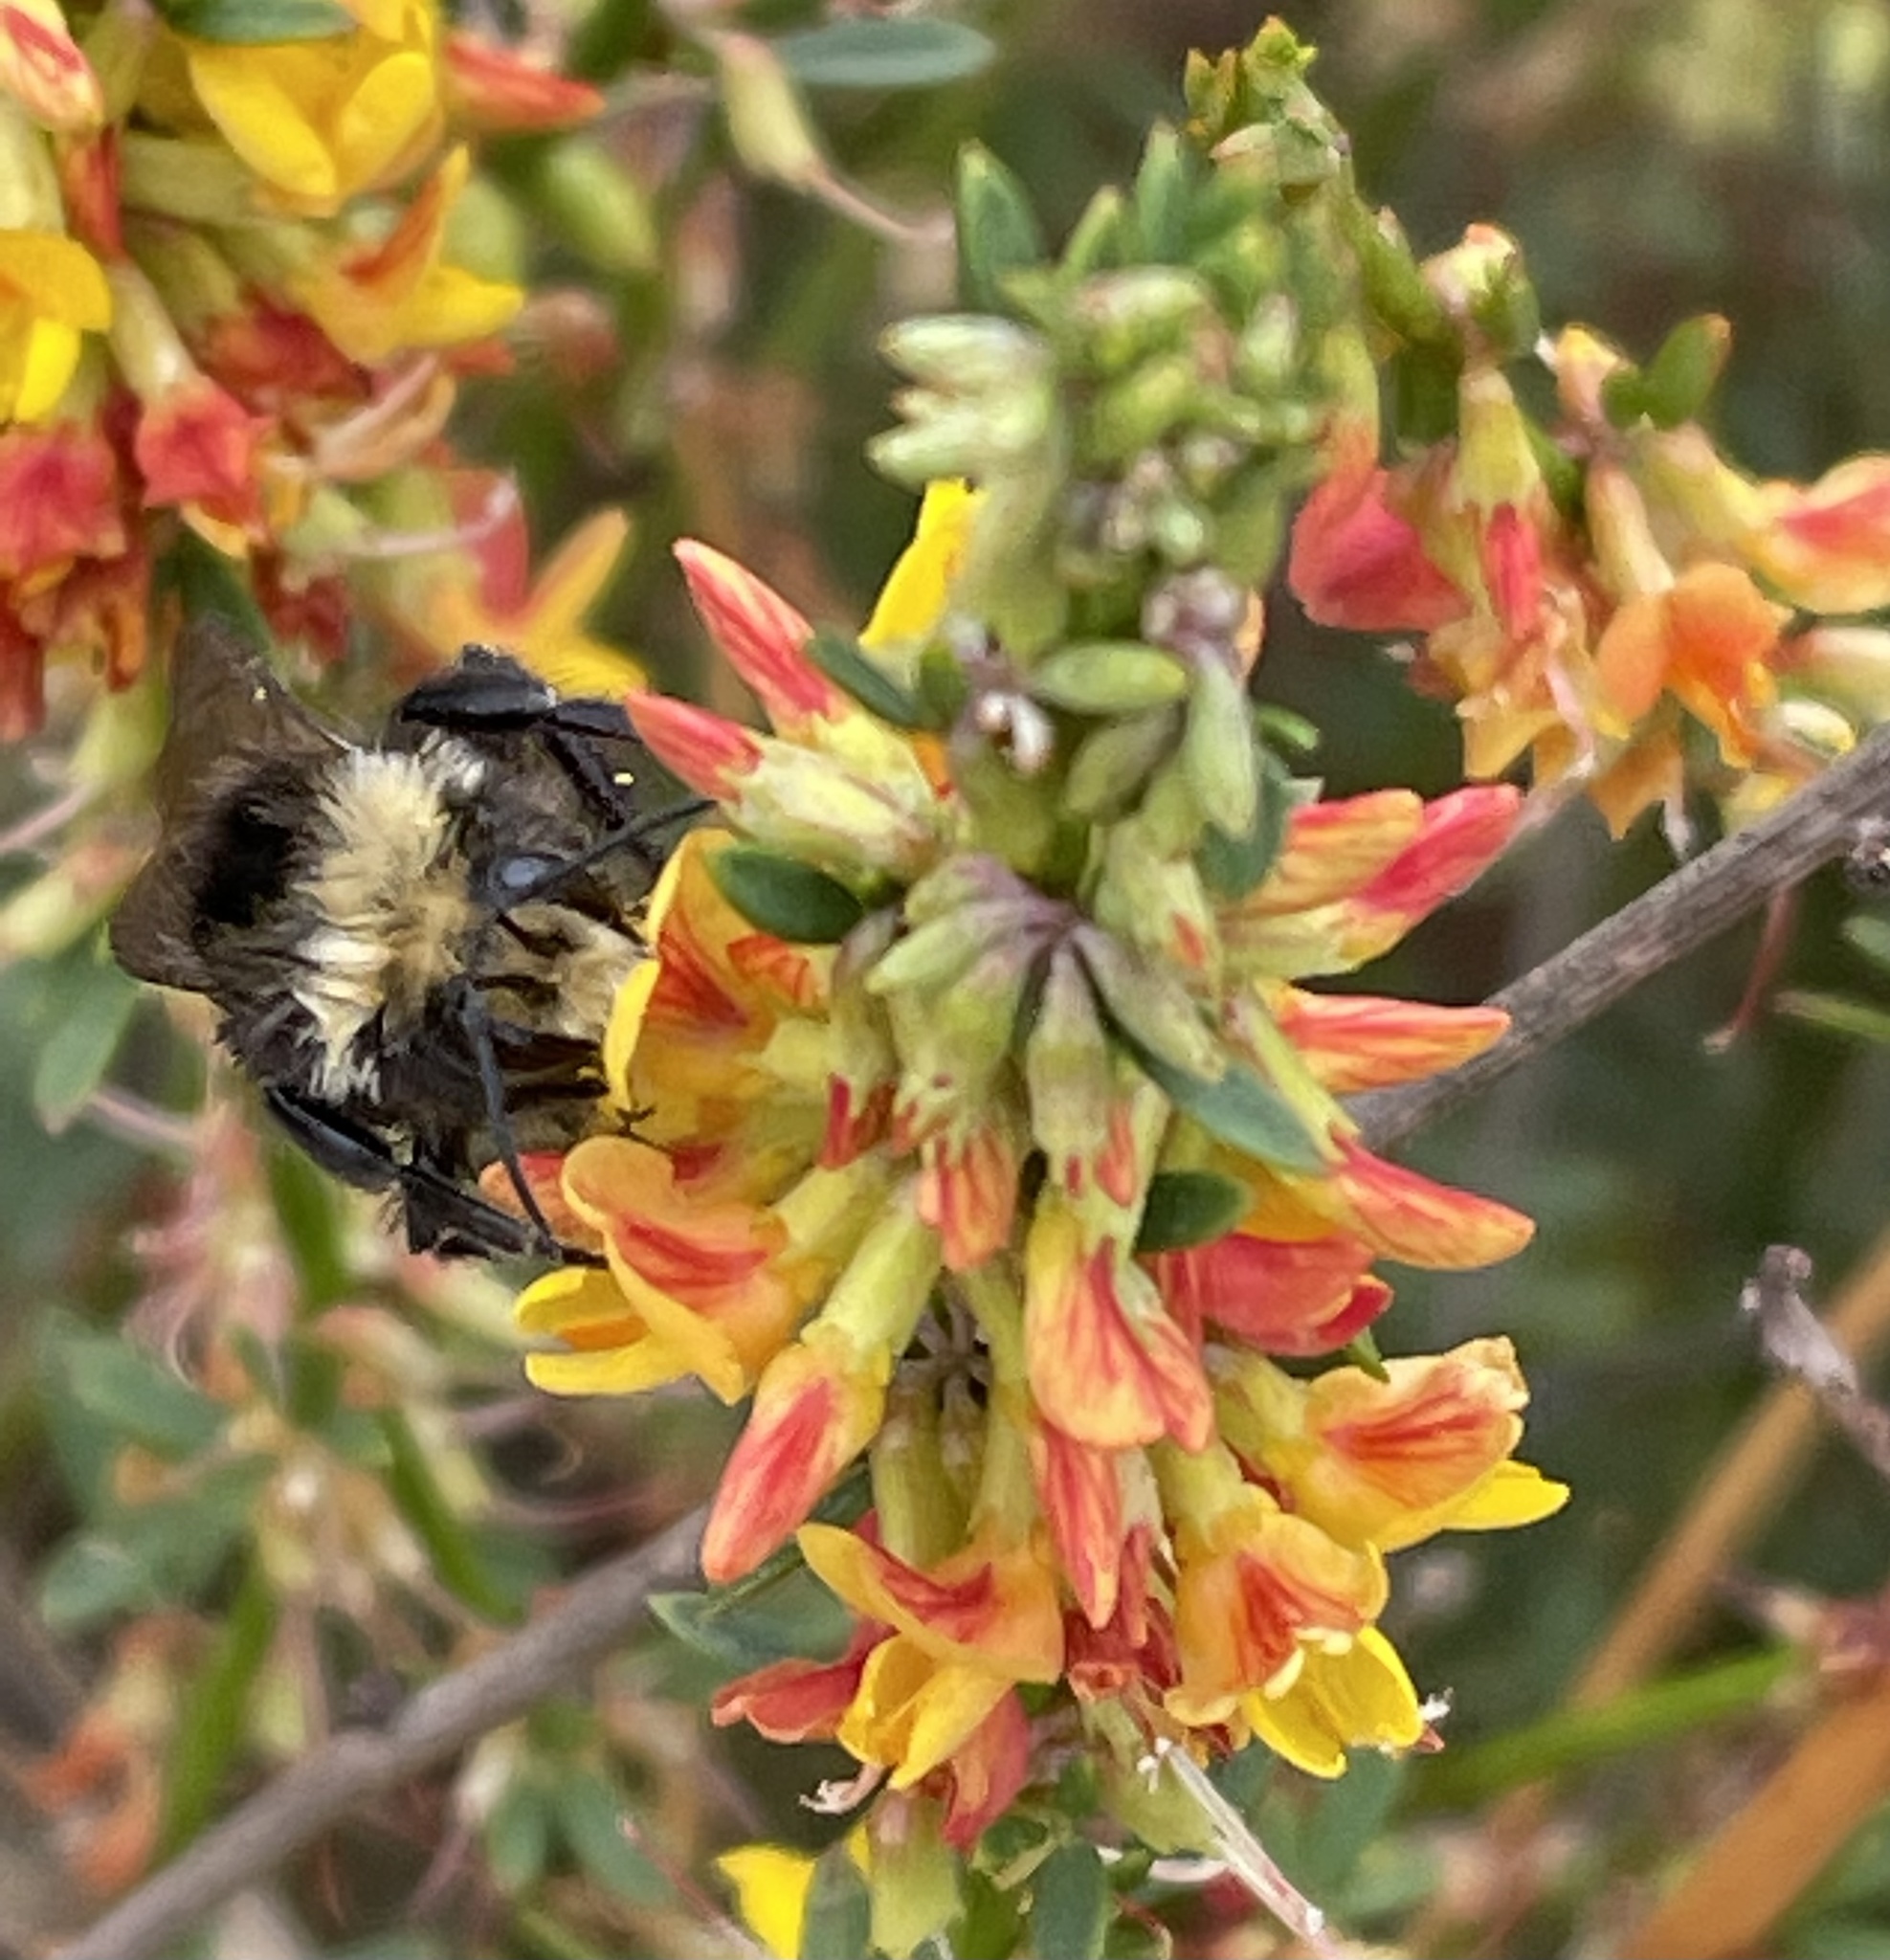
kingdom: Plantae
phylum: Tracheophyta
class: Magnoliopsida
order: Fabales
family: Fabaceae
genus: Acmispon
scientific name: Acmispon glaber
